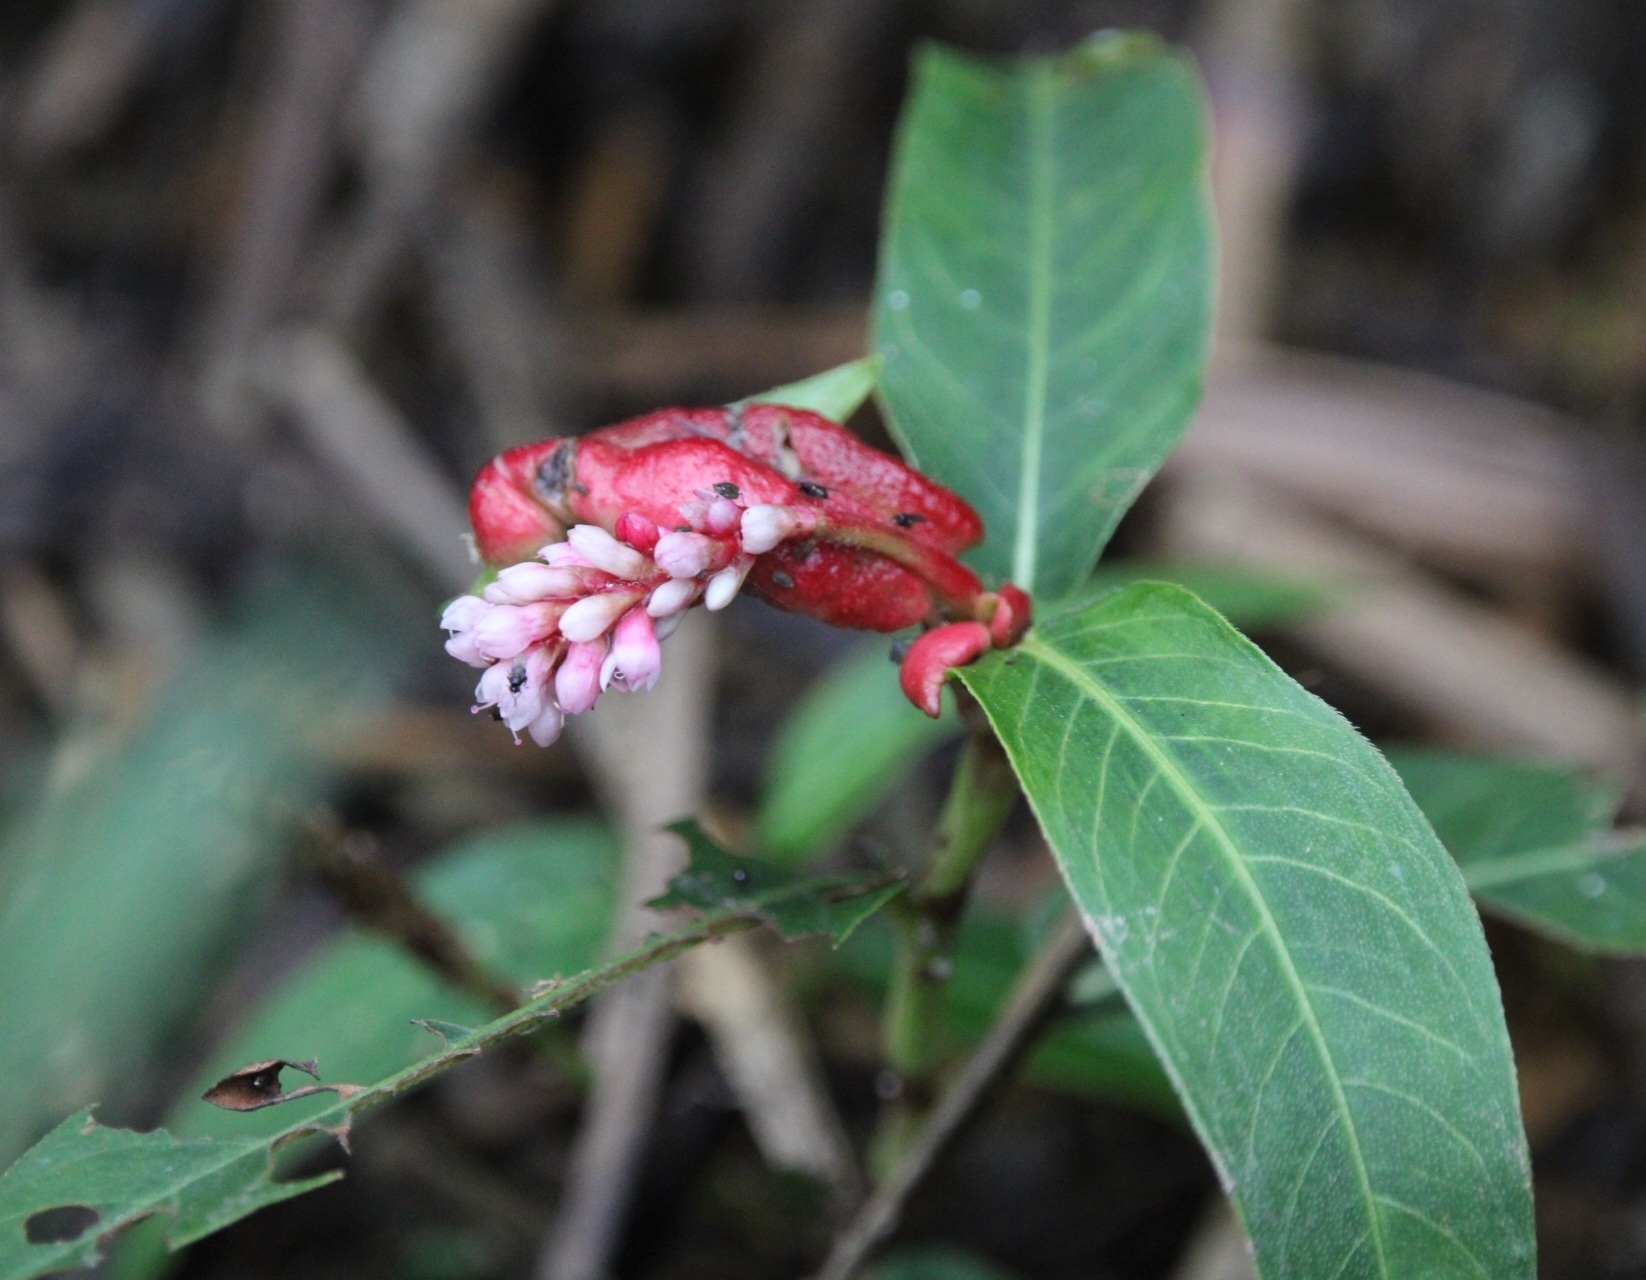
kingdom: Plantae
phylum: Tracheophyta
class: Magnoliopsida
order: Caryophyllales
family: Polygonaceae
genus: Persicaria
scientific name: Persicaria amphibia
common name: Amphibious bistort
